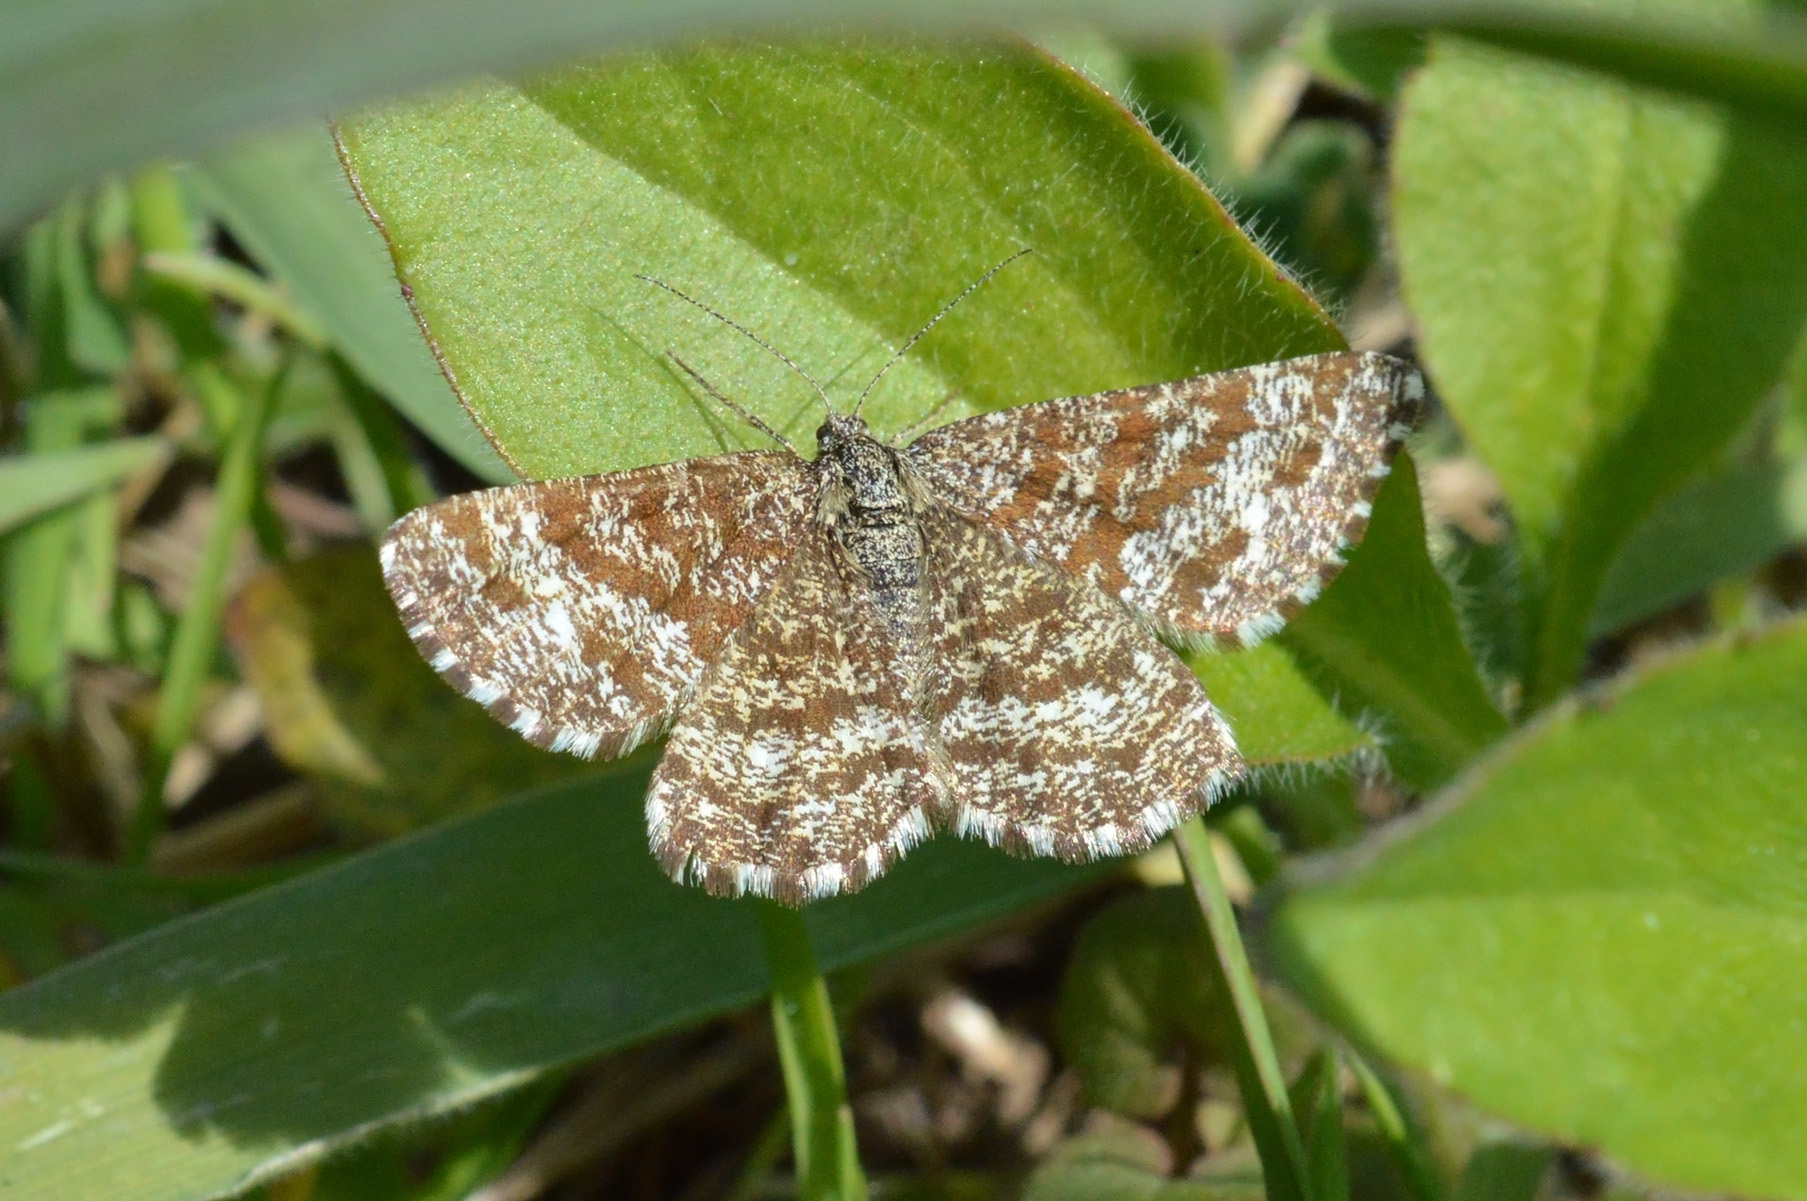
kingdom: Animalia
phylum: Arthropoda
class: Insecta
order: Lepidoptera
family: Geometridae
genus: Ematurga
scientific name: Ematurga atomaria
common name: Common heath
